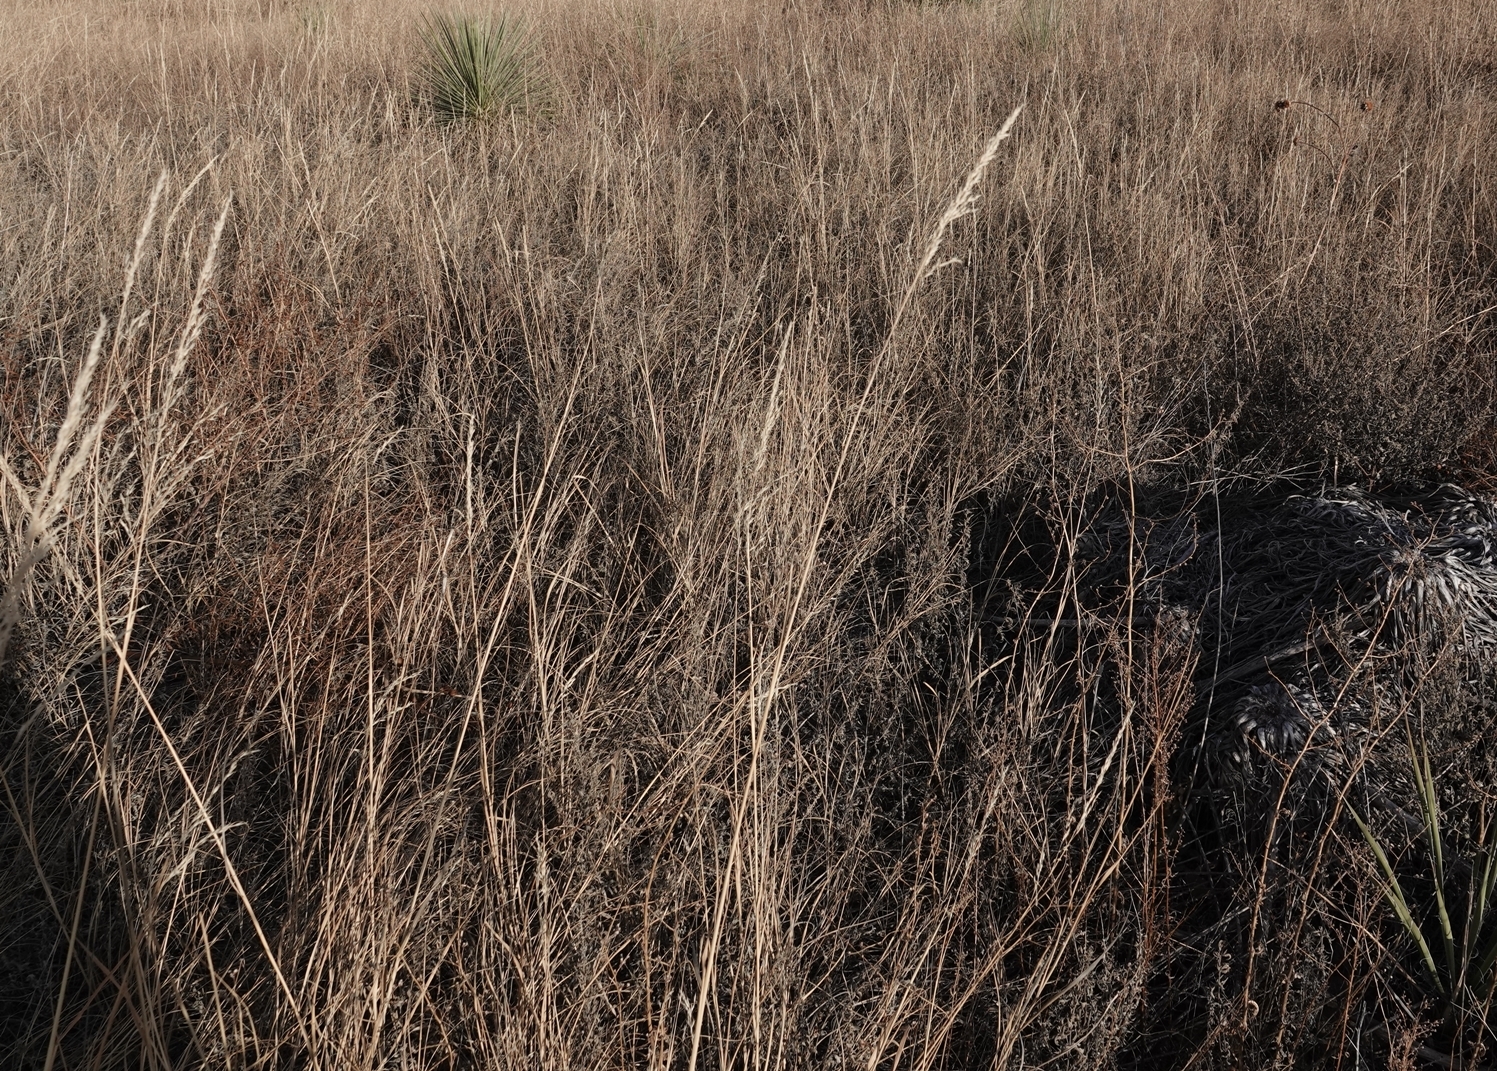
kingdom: Plantae
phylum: Tracheophyta
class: Liliopsida
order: Poales
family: Poaceae
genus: Sporobolus
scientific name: Sporobolus rigidus
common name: Prairie sandreed
